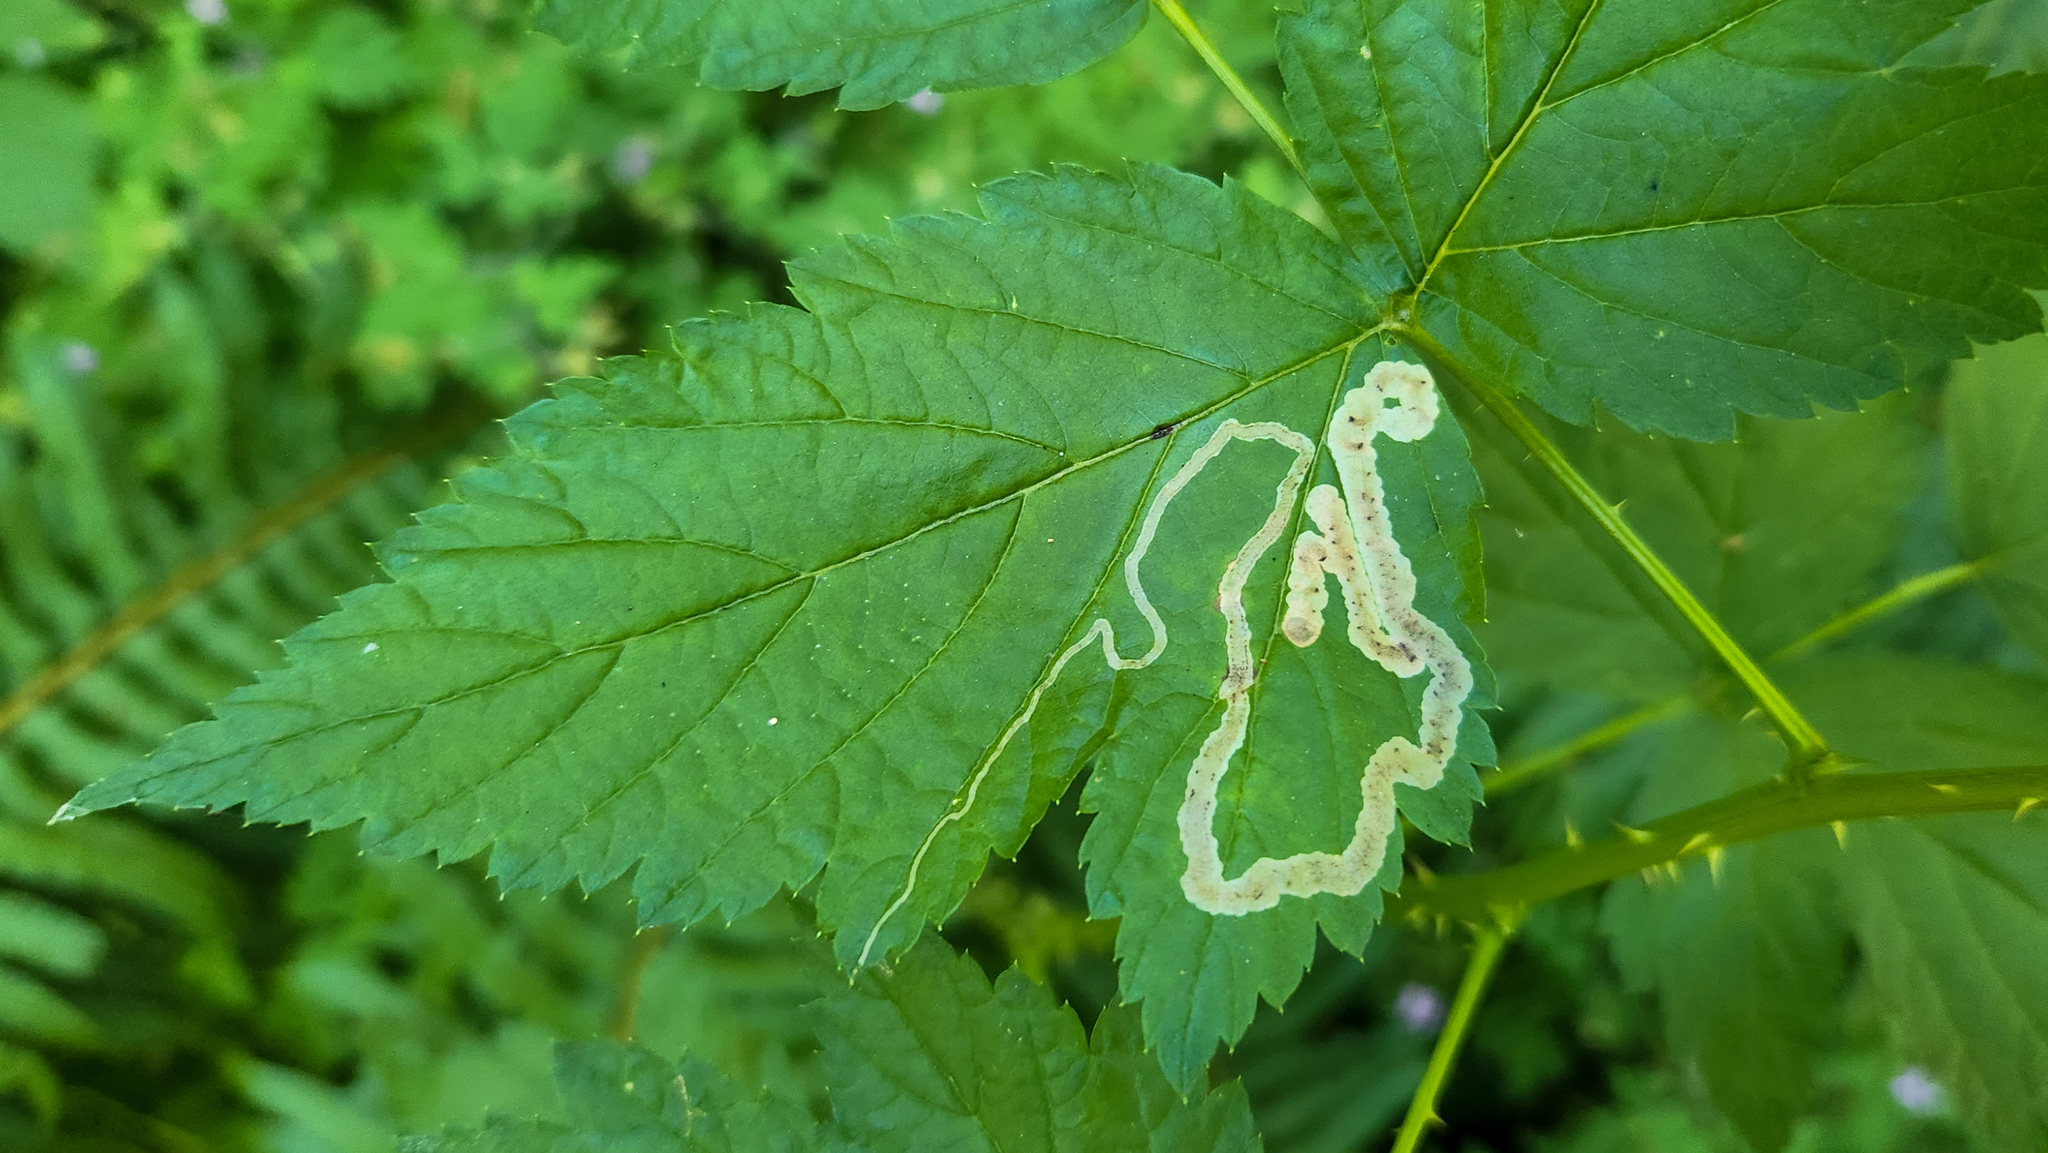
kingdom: Animalia
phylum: Arthropoda
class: Insecta
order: Diptera
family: Agromyzidae
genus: Agromyza
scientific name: Agromyza vockerothi
